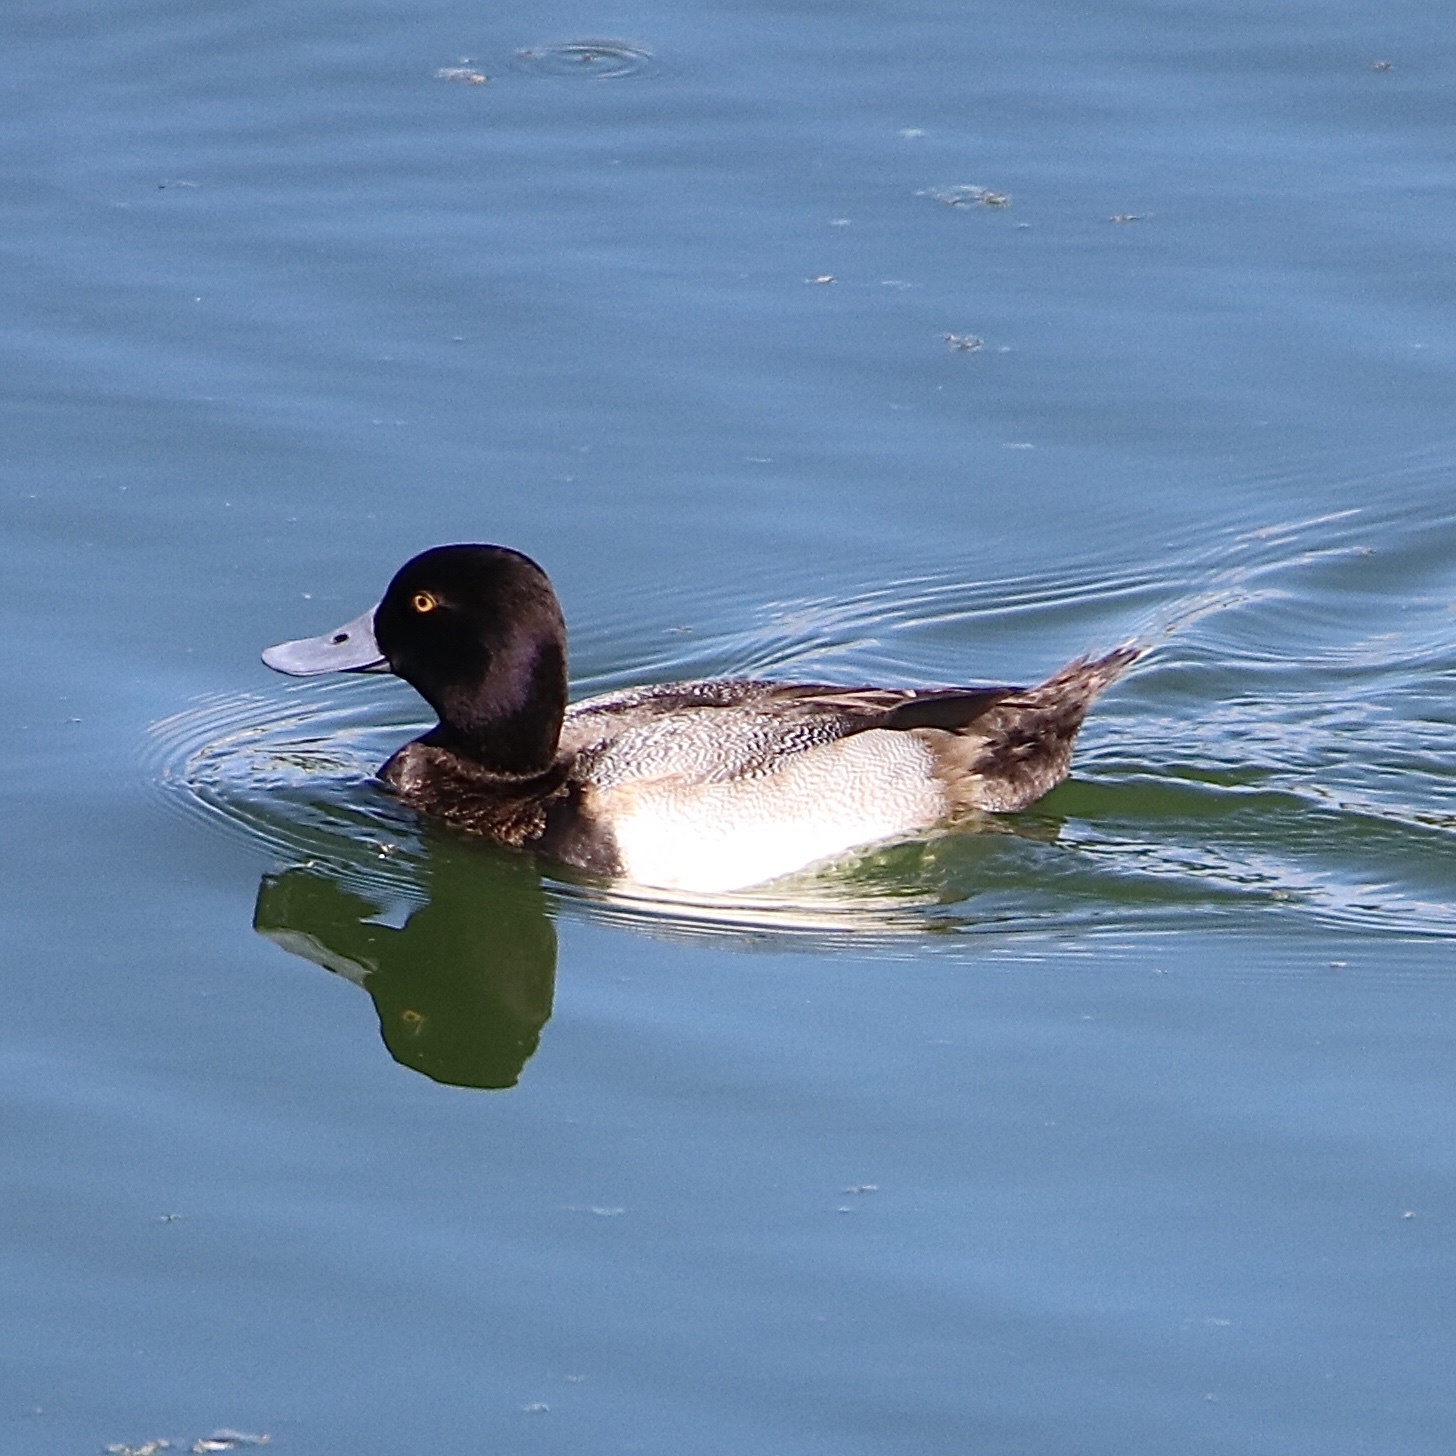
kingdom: Animalia
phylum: Chordata
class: Aves
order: Anseriformes
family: Anatidae
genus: Aythya
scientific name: Aythya affinis
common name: Lesser scaup
